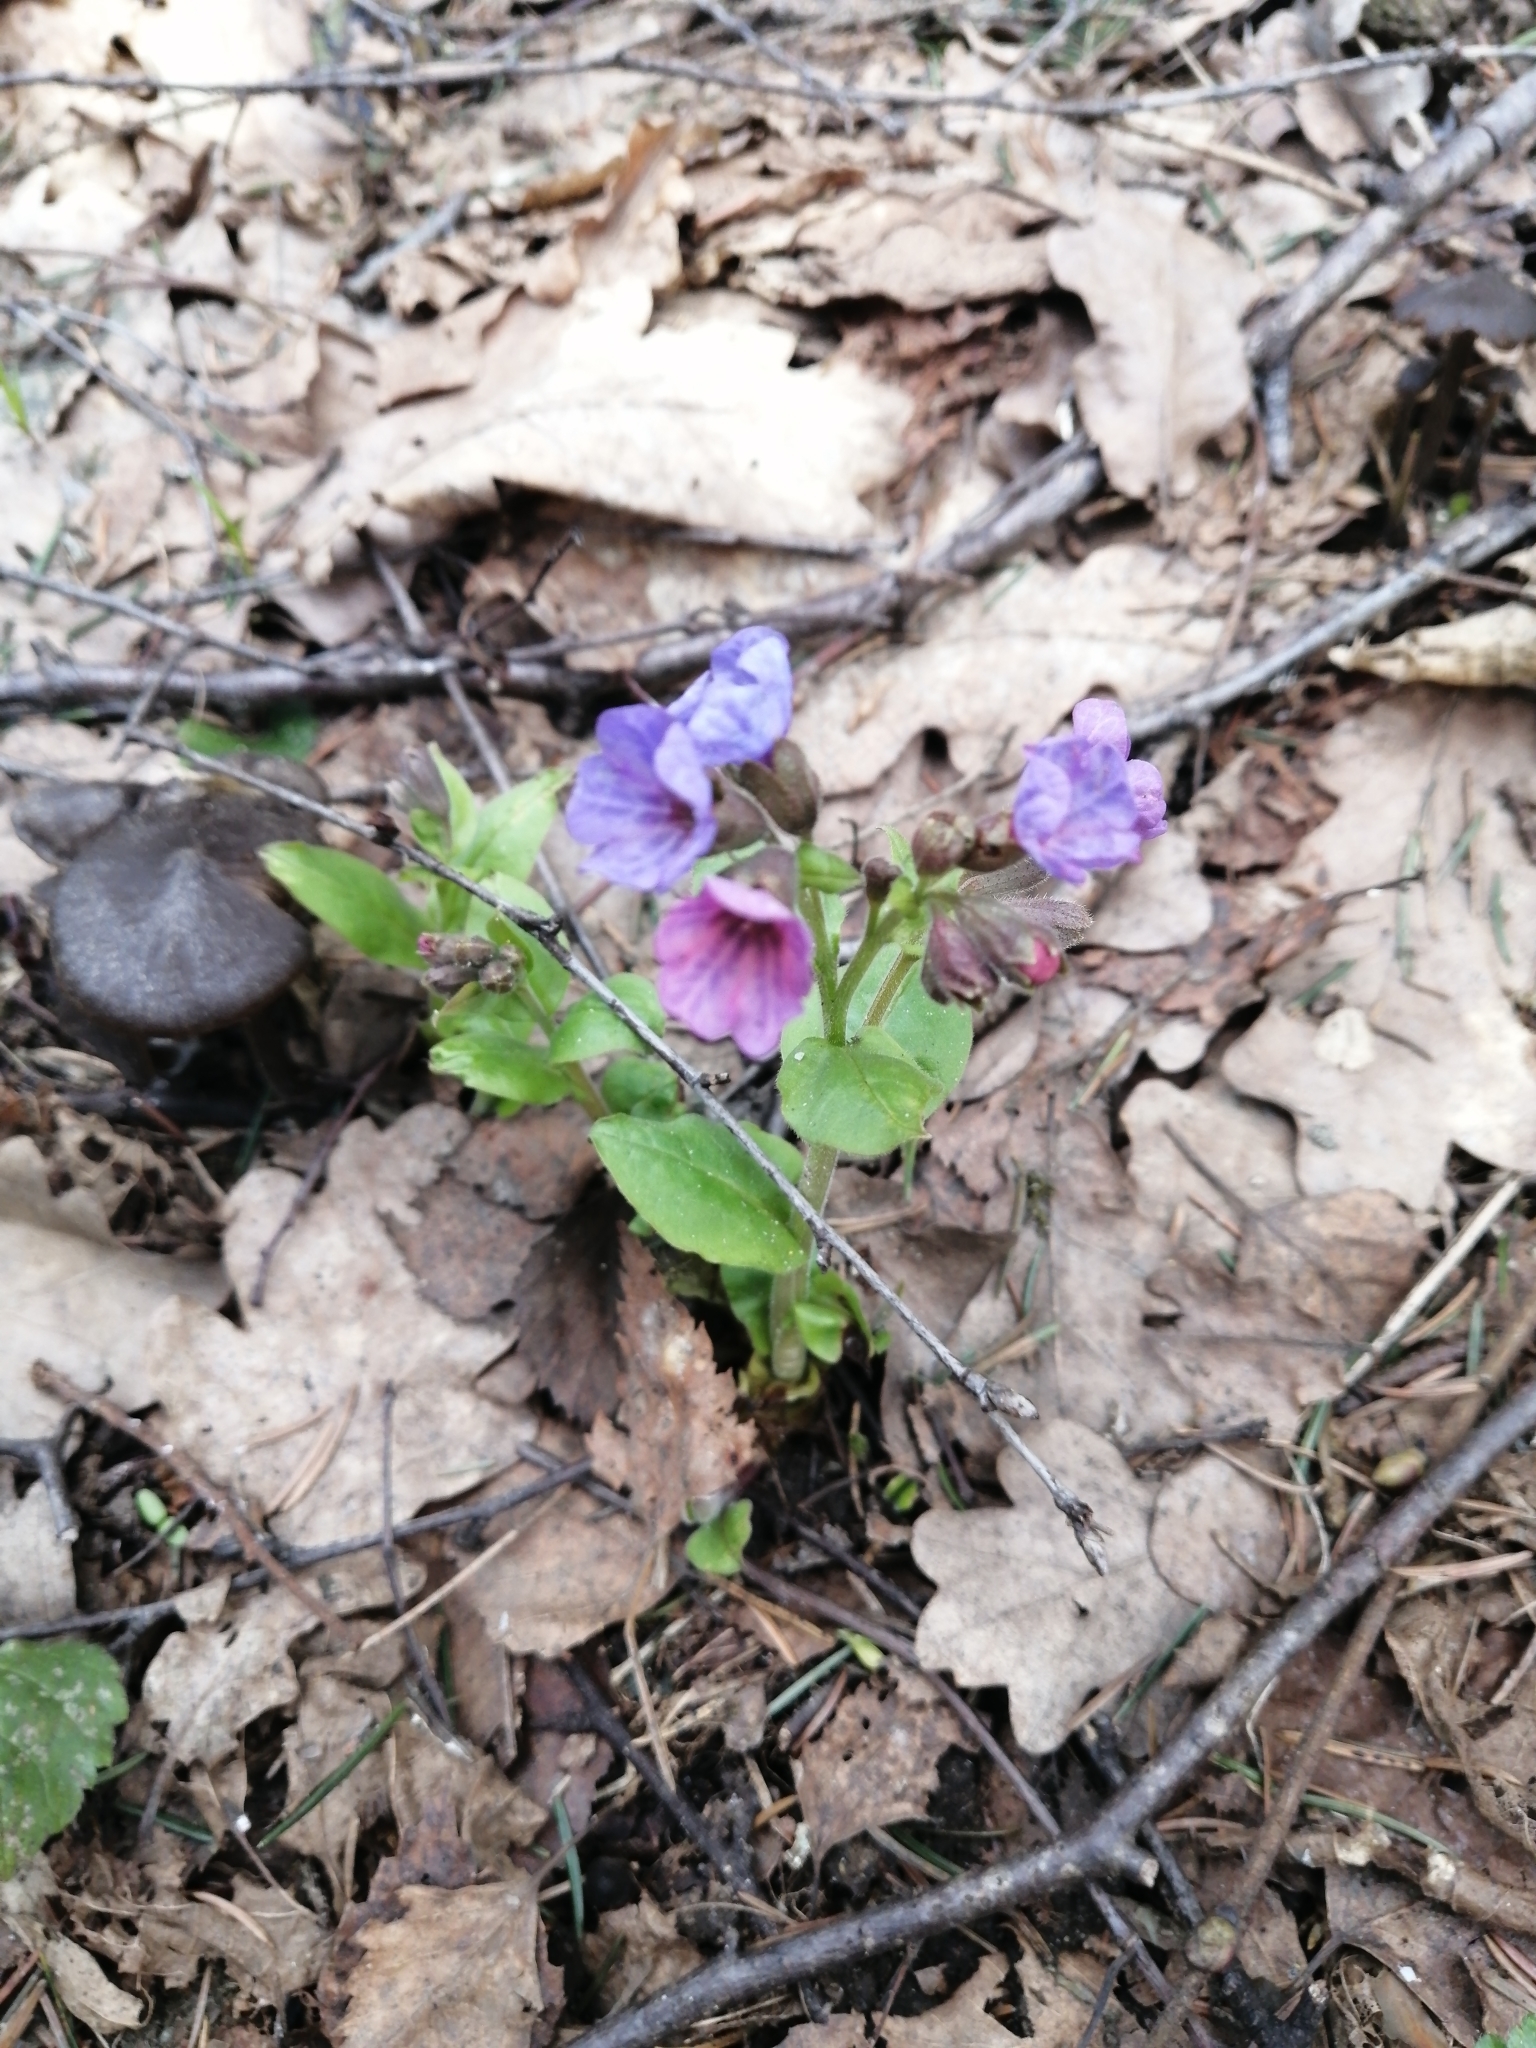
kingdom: Plantae
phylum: Tracheophyta
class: Magnoliopsida
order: Boraginales
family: Boraginaceae
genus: Pulmonaria
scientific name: Pulmonaria obscura
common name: Suffolk lungwort
